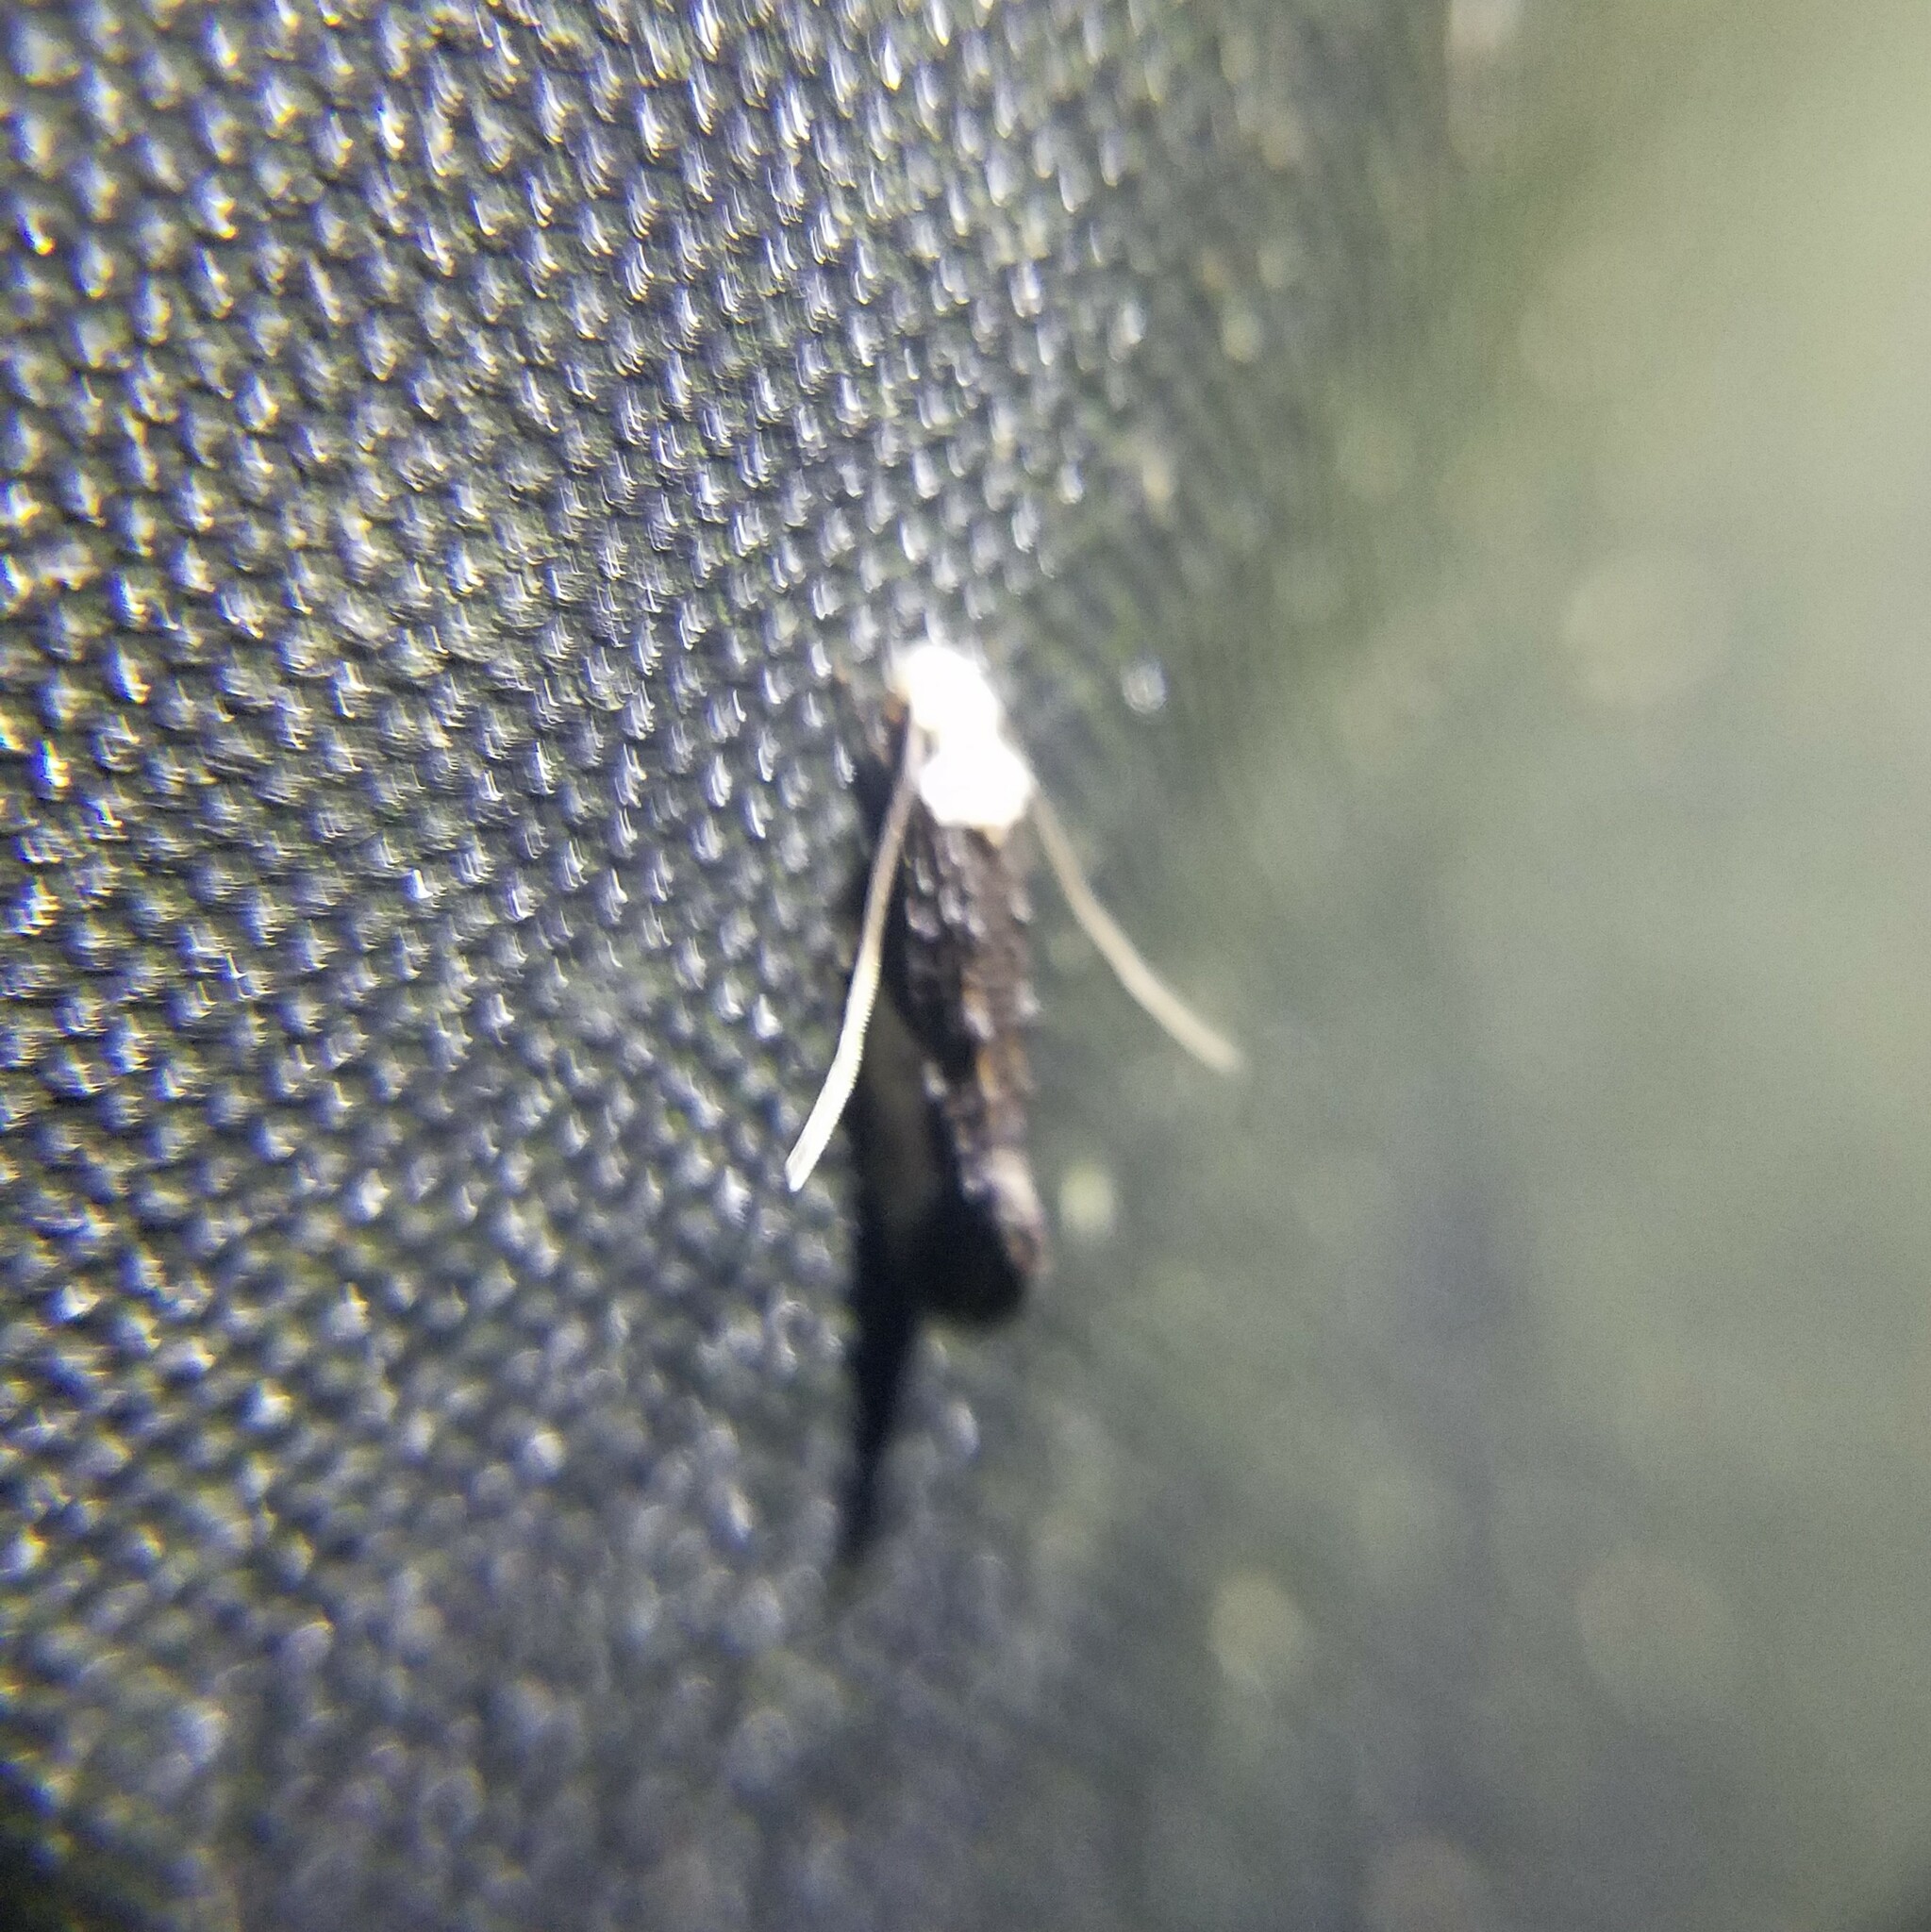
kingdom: Animalia
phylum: Arthropoda
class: Insecta
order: Lepidoptera
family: Tineidae
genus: Monopis
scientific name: Monopis longella
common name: Pavlovski's monopis moth
